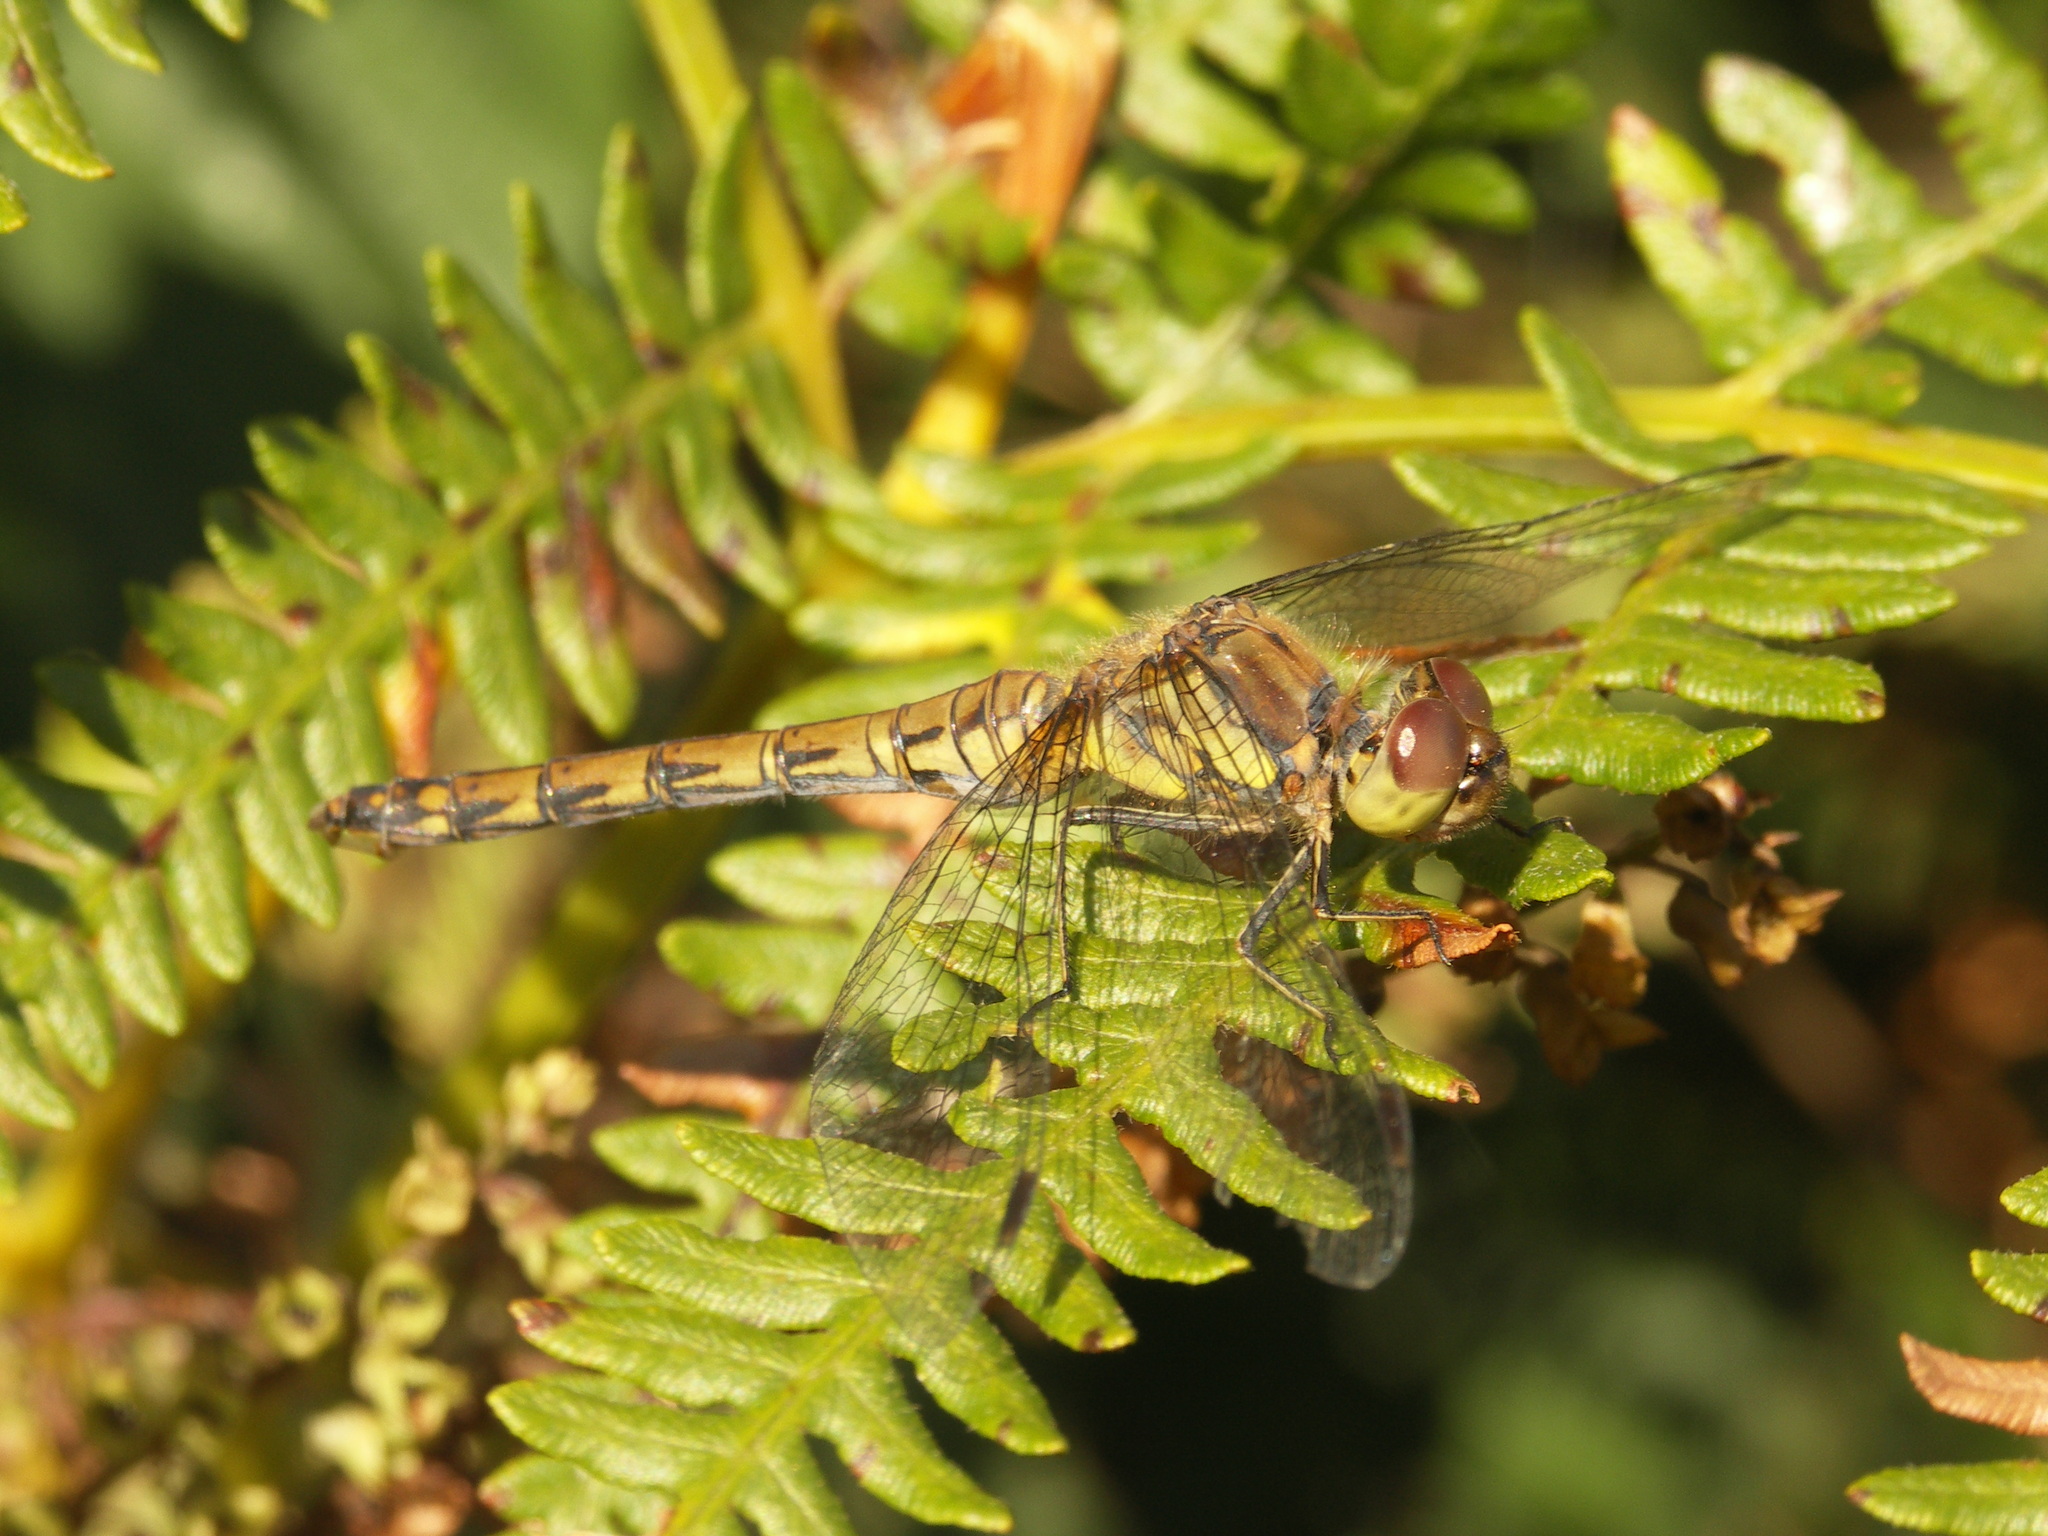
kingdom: Animalia
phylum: Arthropoda
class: Insecta
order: Odonata
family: Libellulidae
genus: Sympetrum
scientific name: Sympetrum striolatum
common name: Common darter
